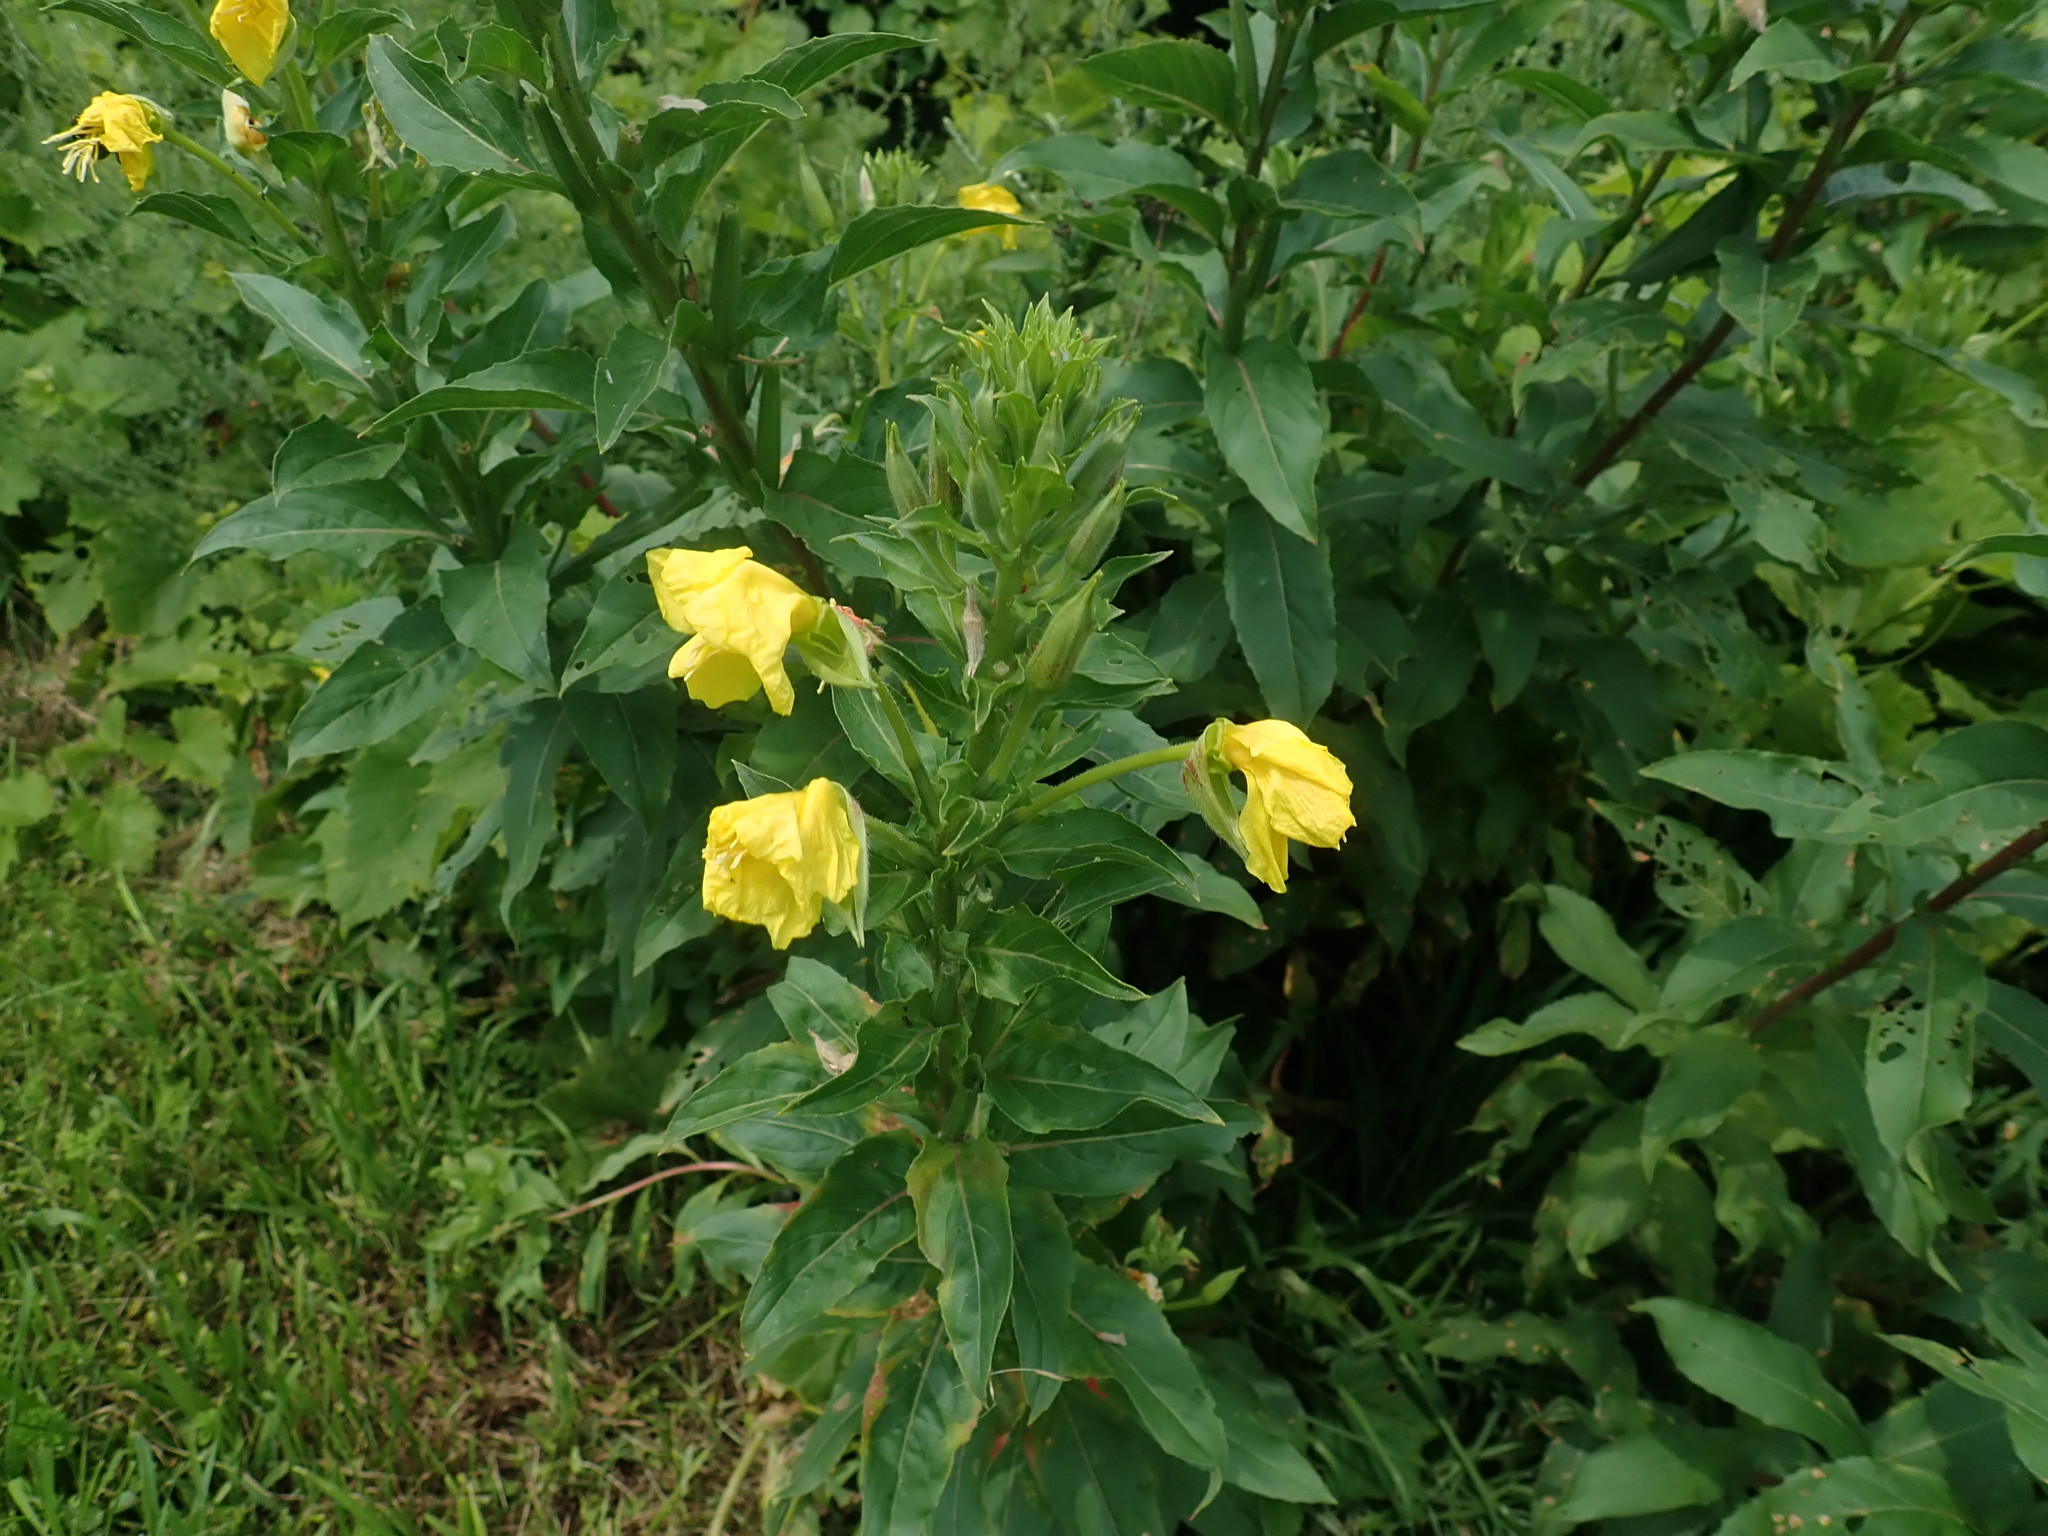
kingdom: Plantae
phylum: Tracheophyta
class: Magnoliopsida
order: Myrtales
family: Onagraceae
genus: Oenothera
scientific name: Oenothera biennis
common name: Common evening-primrose
